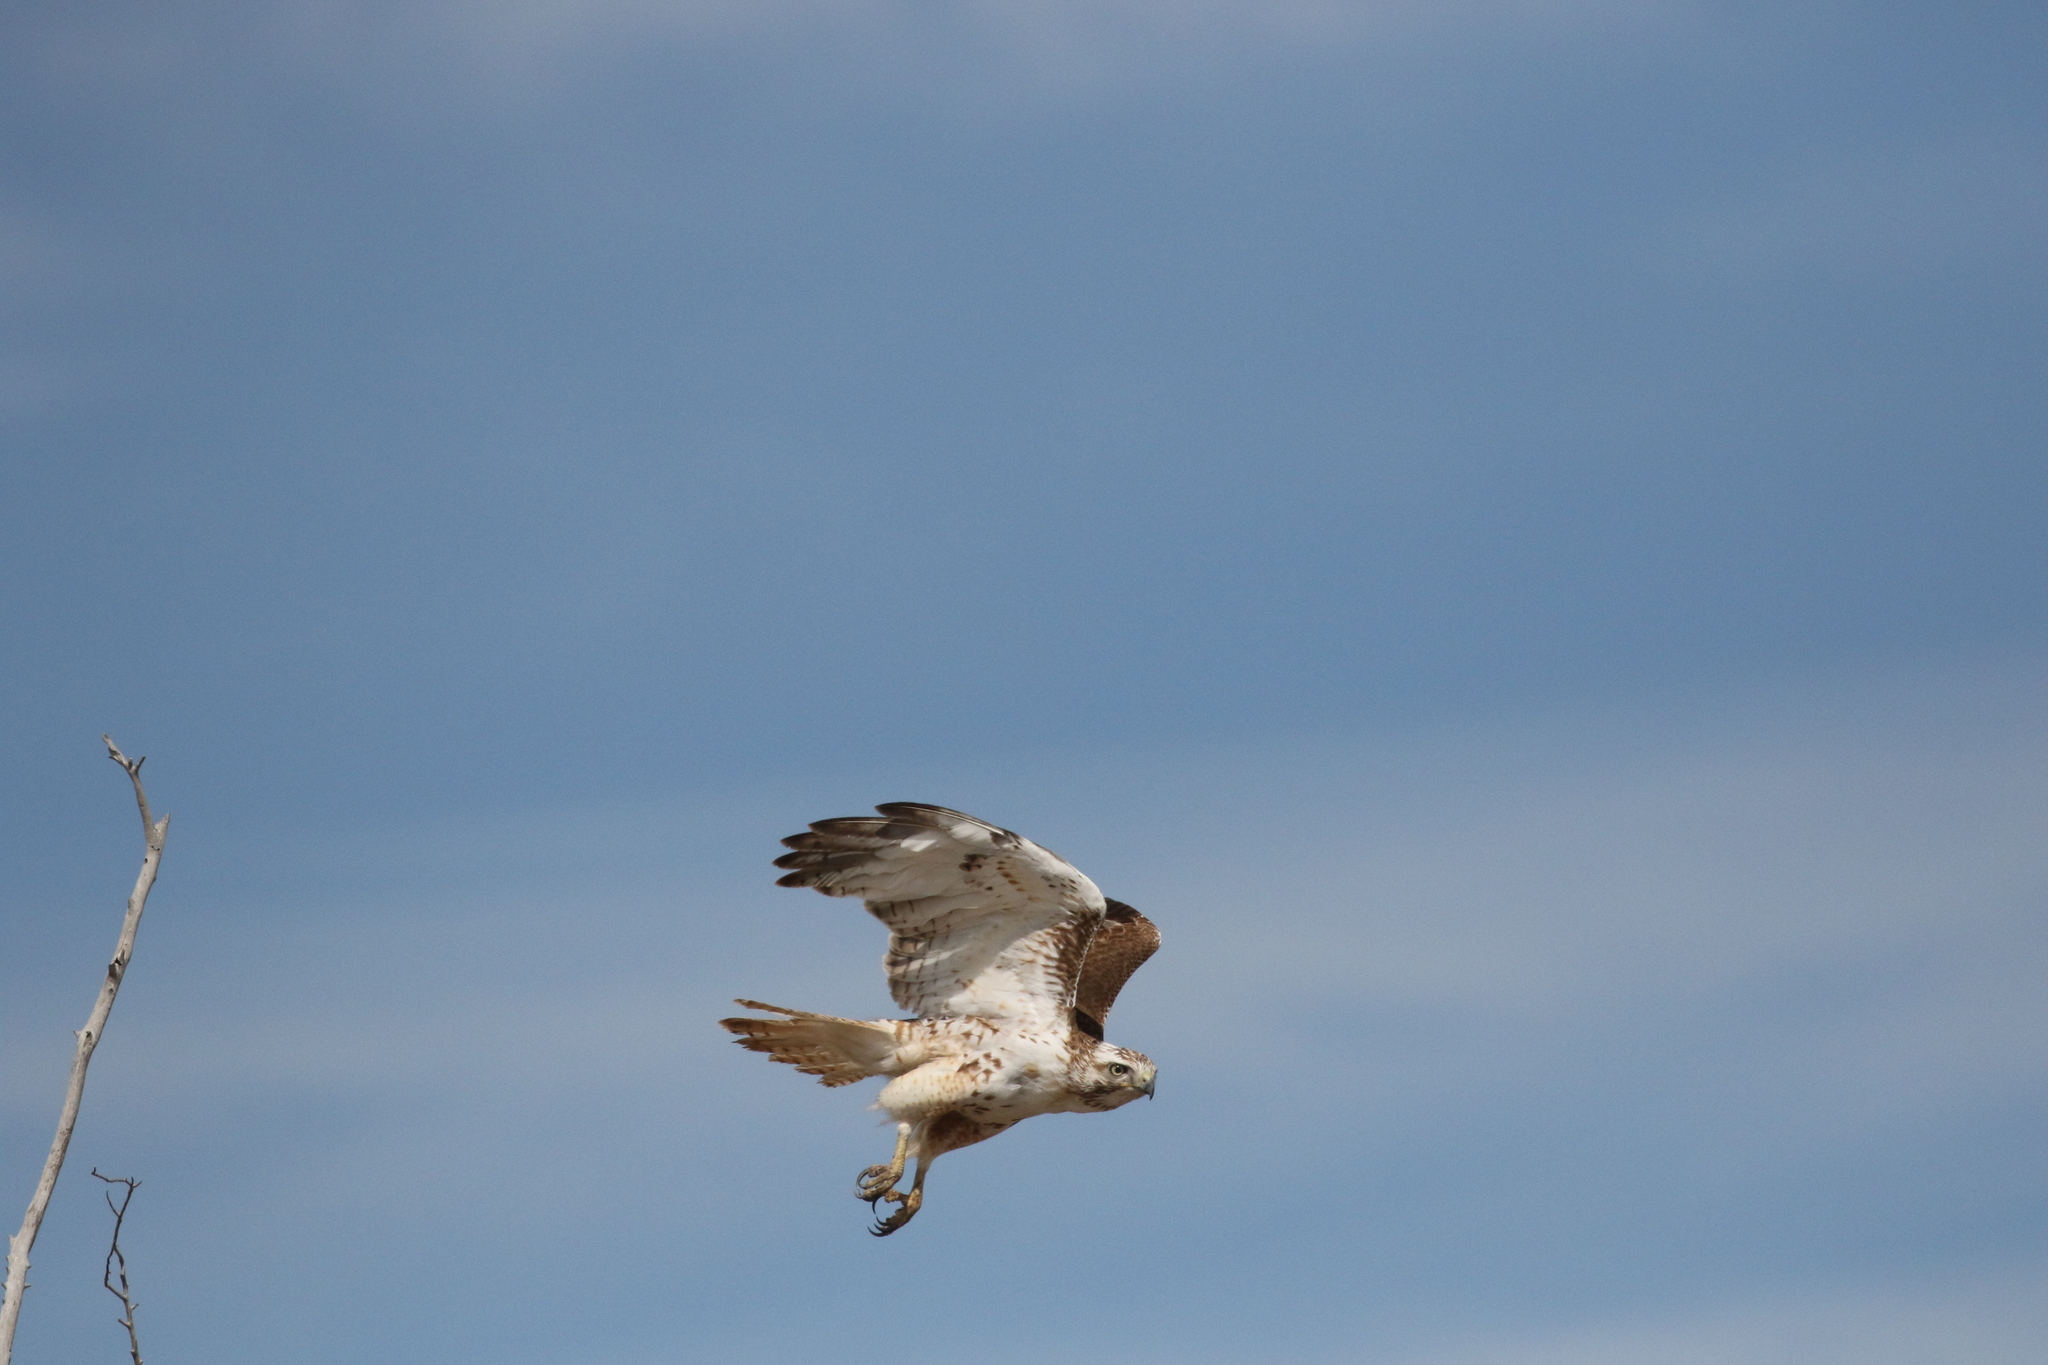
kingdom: Animalia
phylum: Chordata
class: Aves
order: Accipitriformes
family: Accipitridae
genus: Buteo
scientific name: Buteo jamaicensis
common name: Red-tailed hawk
